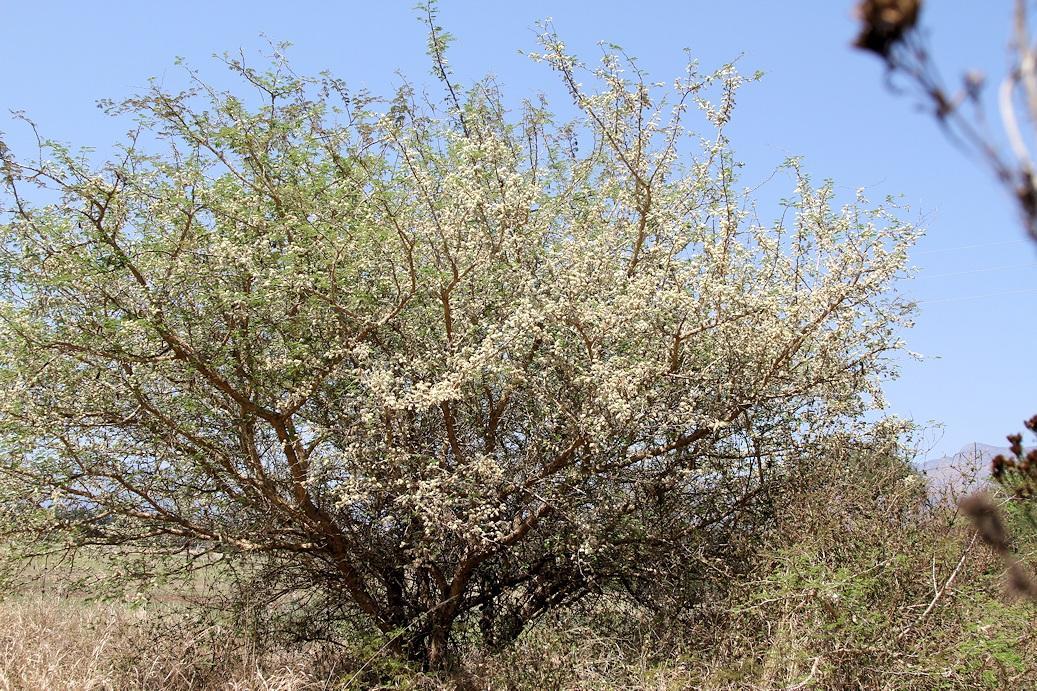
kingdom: Plantae
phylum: Tracheophyta
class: Magnoliopsida
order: Fabales
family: Fabaceae
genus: Senegalia
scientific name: Senegalia erubescens
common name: Bluethorn
